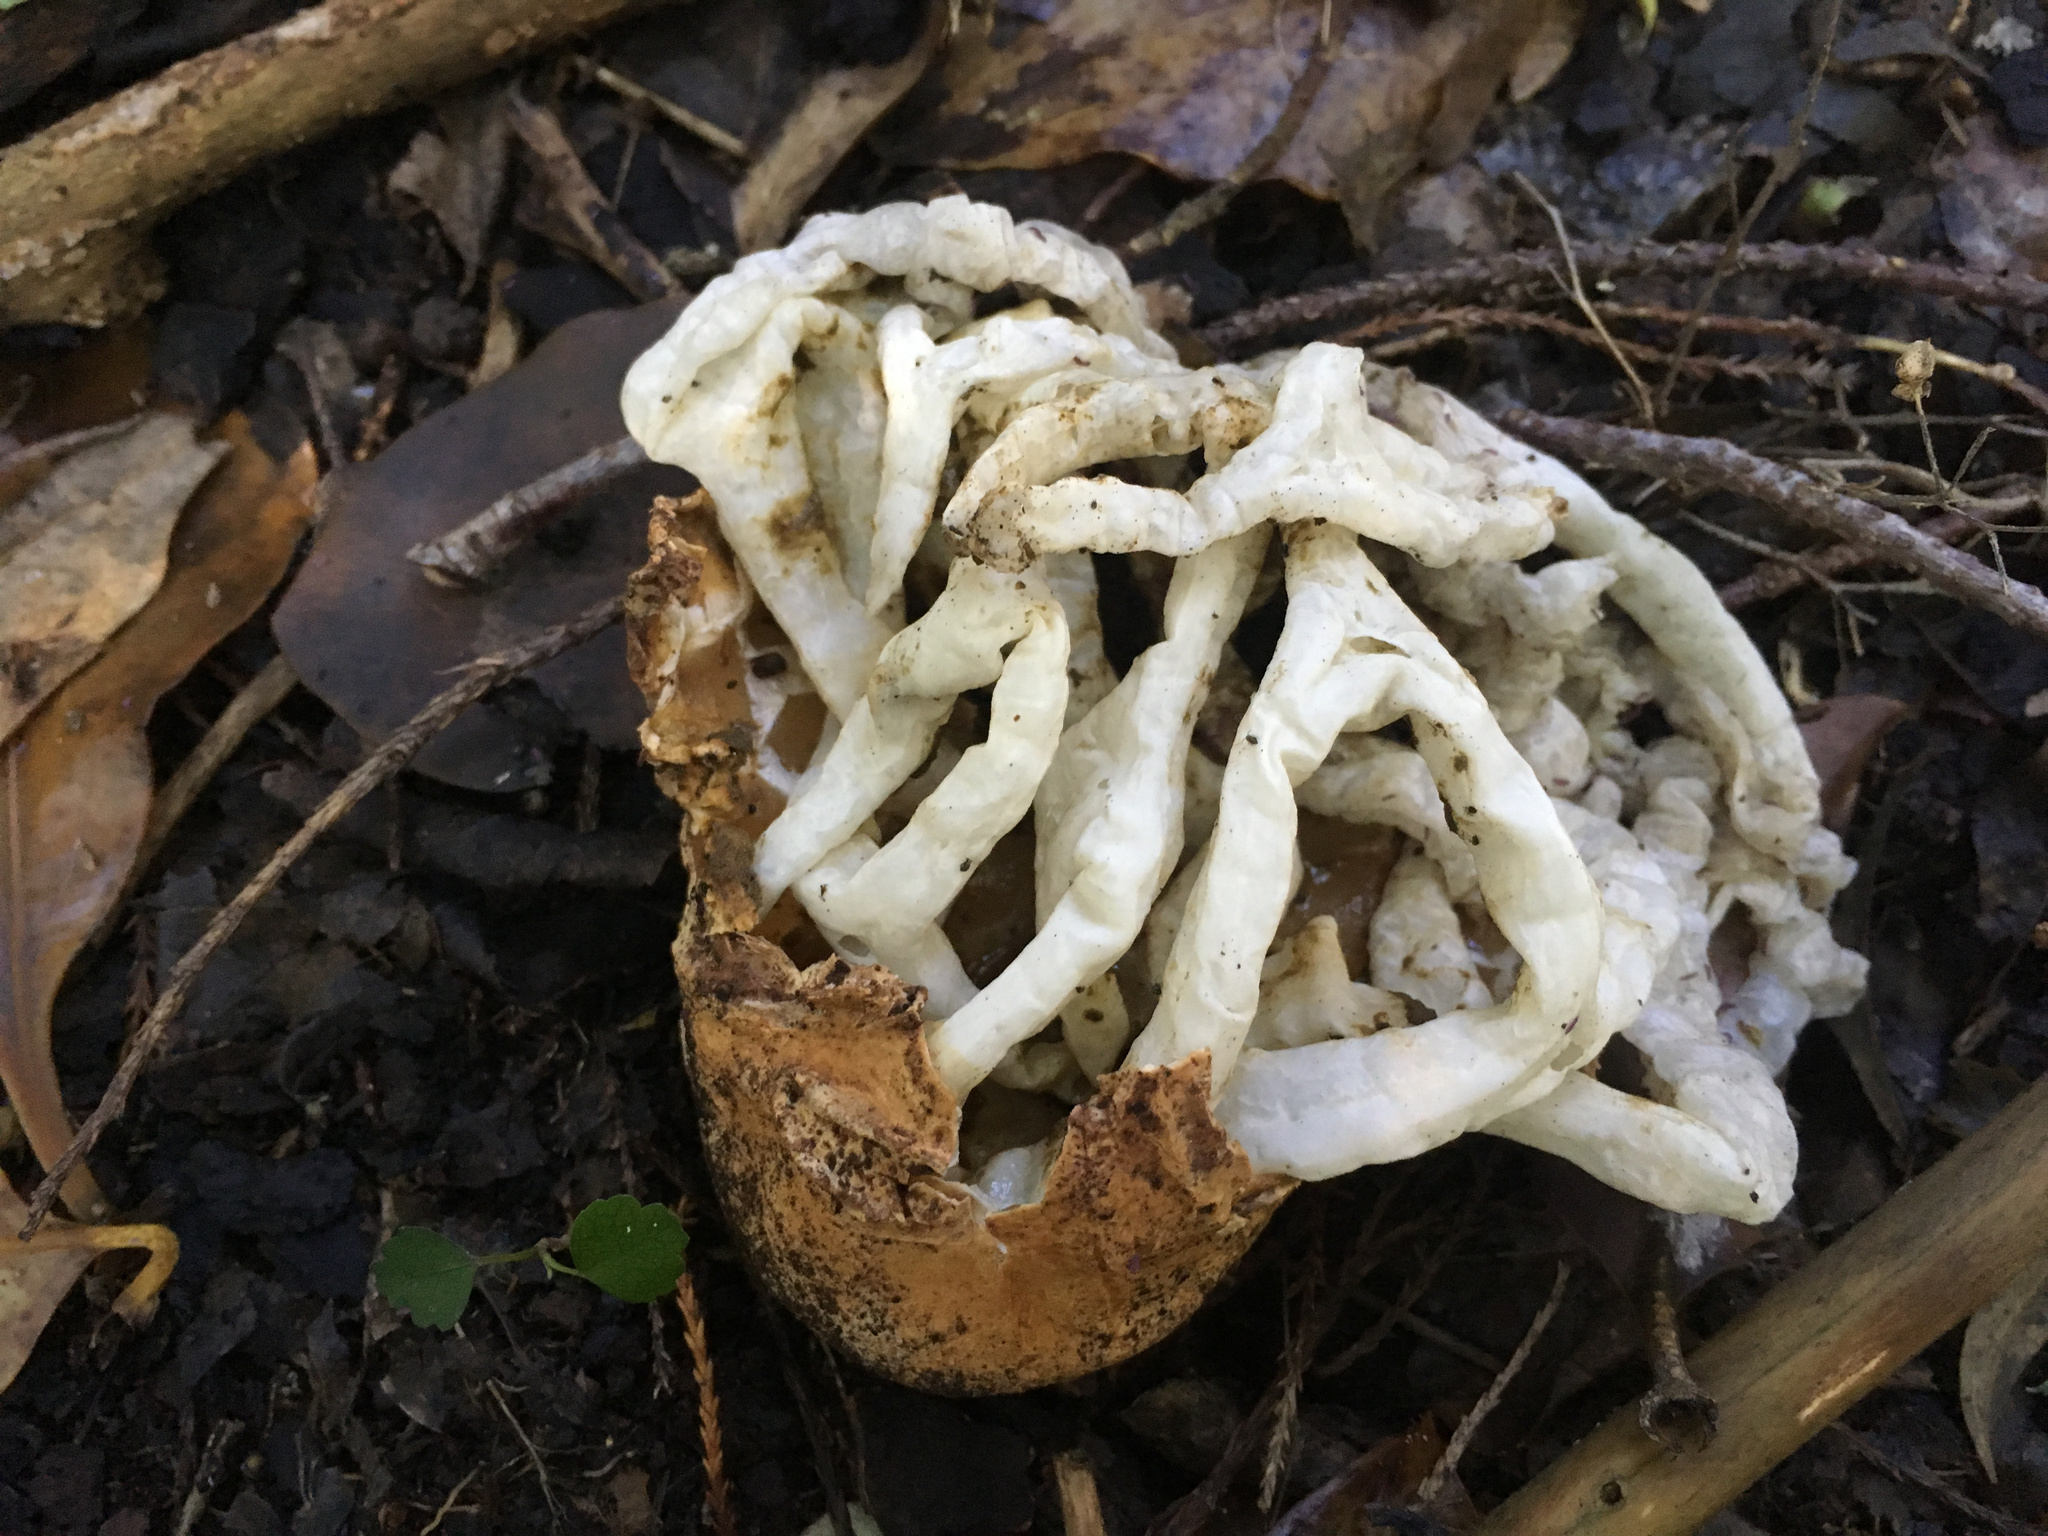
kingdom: Fungi
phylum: Basidiomycota
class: Agaricomycetes
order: Phallales
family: Phallaceae
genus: Ileodictyon
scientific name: Ileodictyon cibarium
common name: Basket fungus
